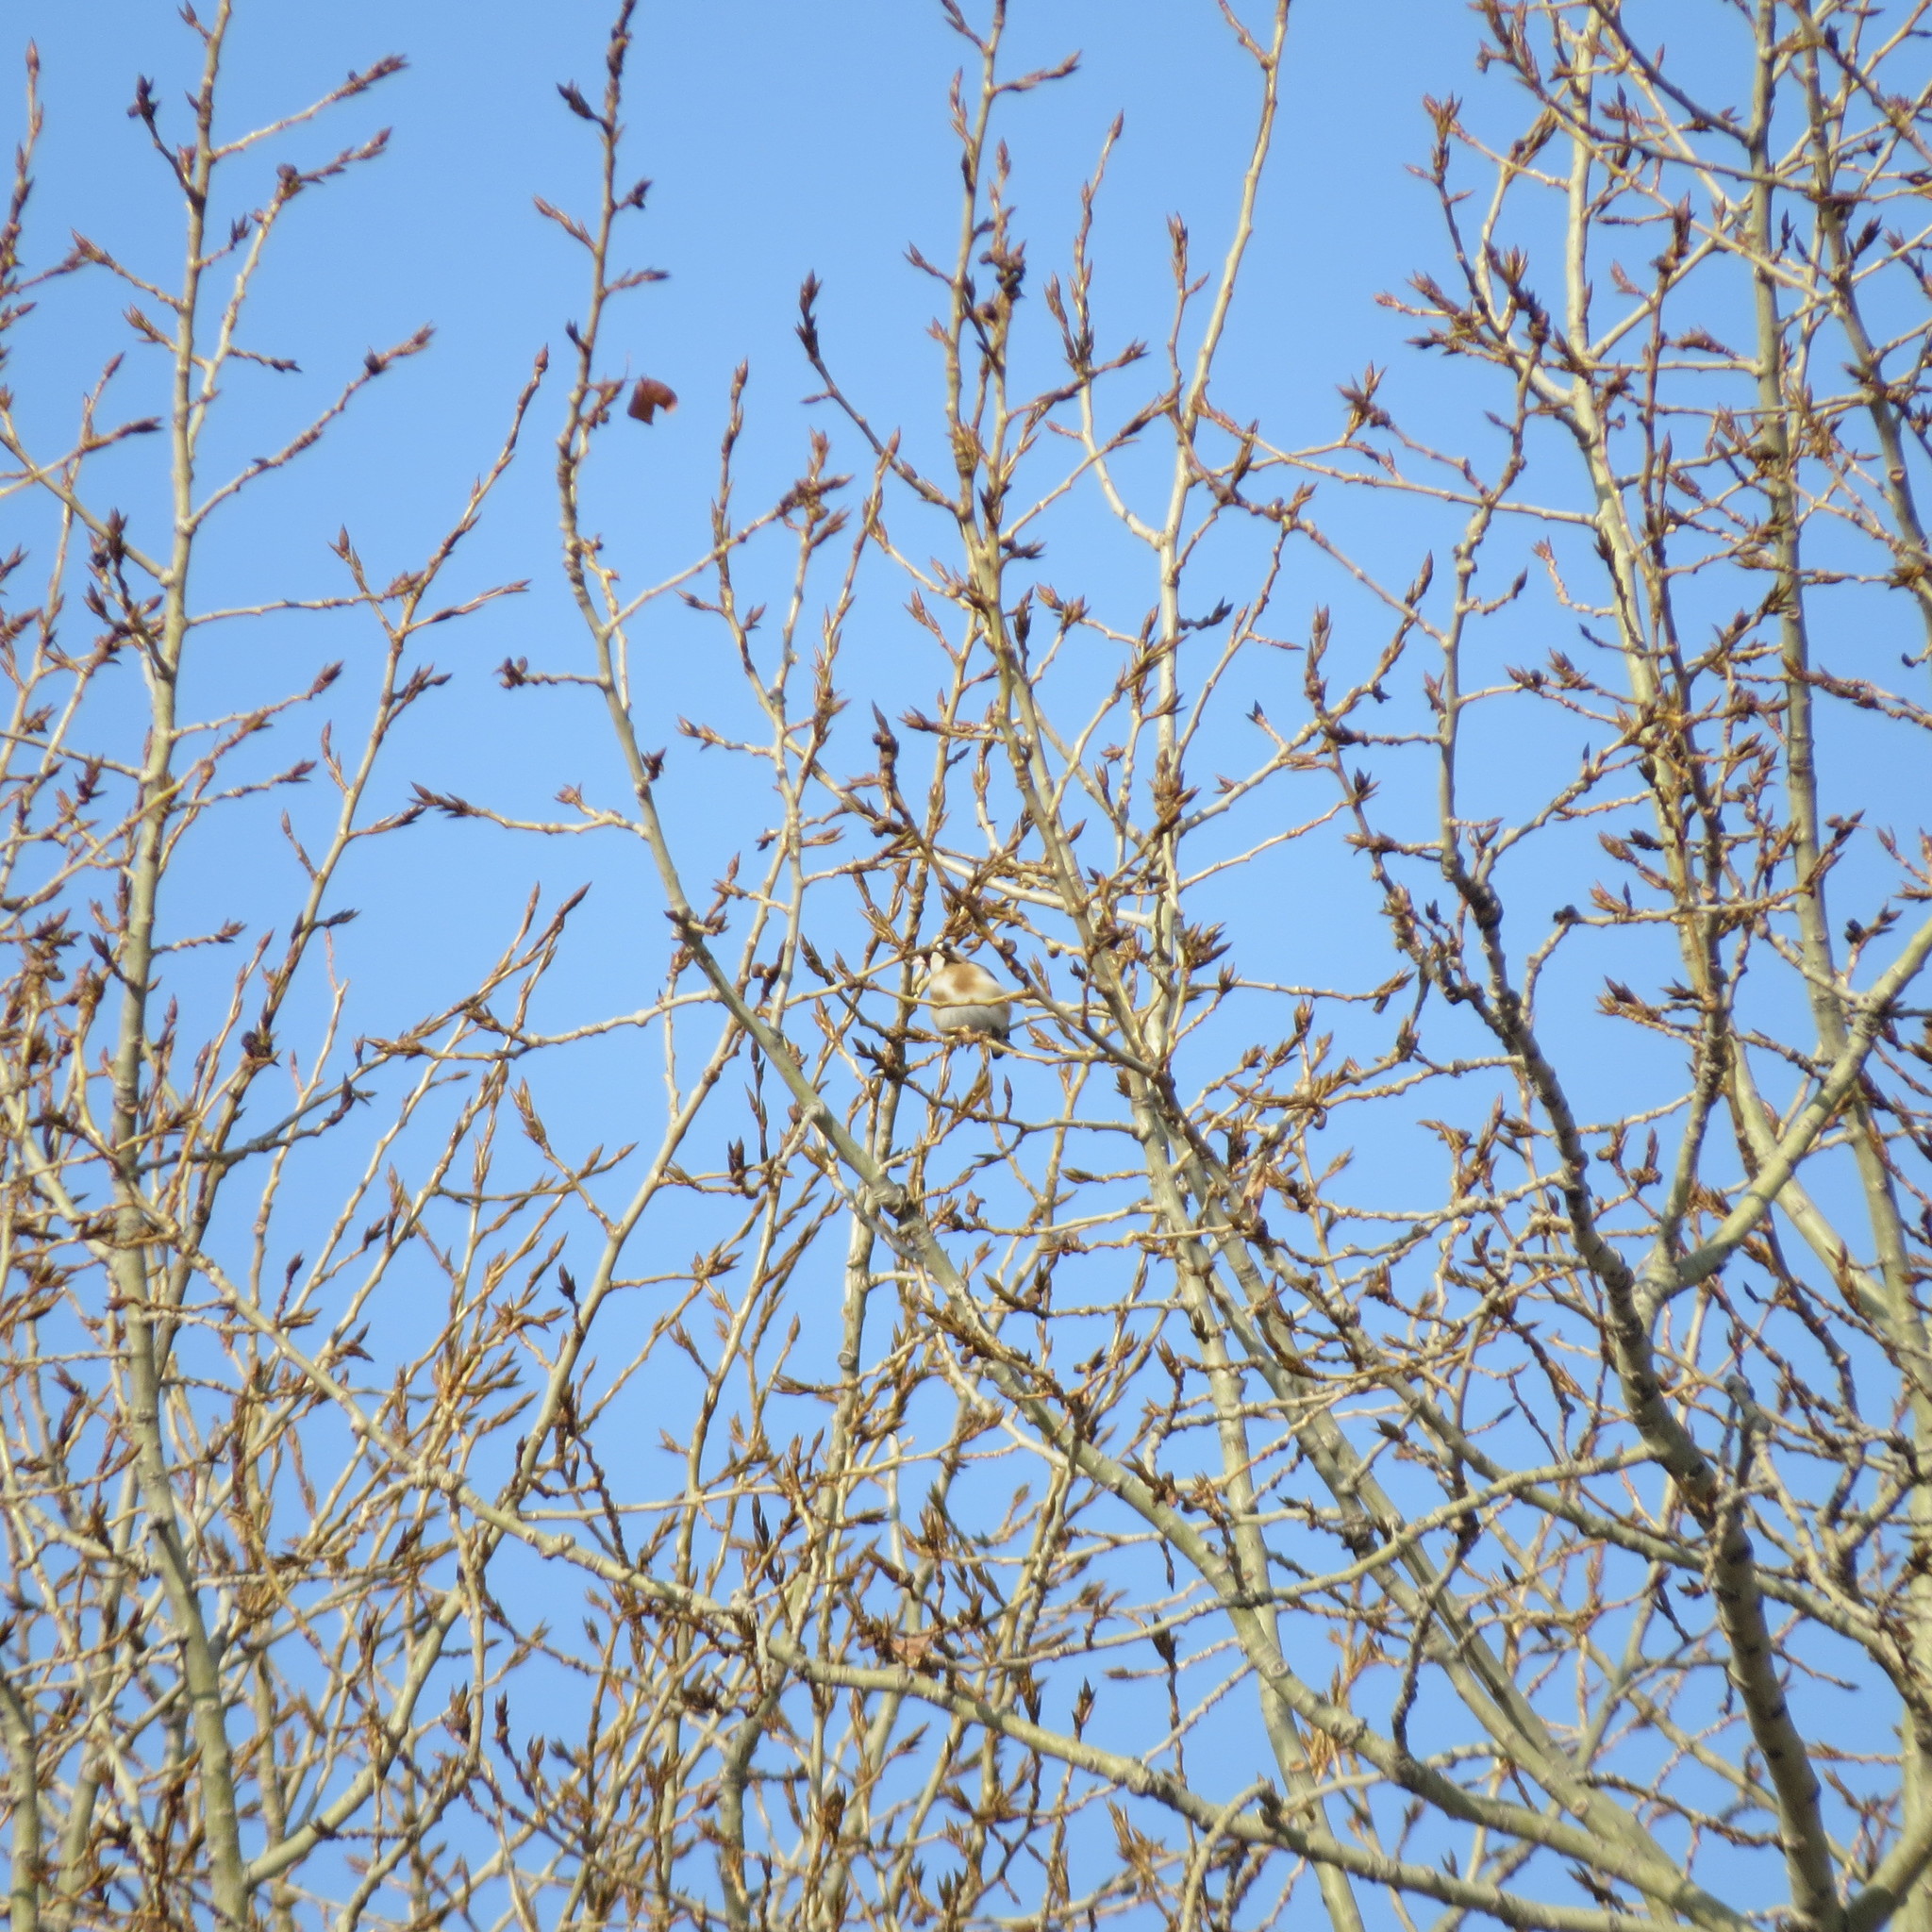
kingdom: Animalia
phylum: Chordata
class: Aves
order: Passeriformes
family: Fringillidae
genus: Carduelis
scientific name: Carduelis carduelis
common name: European goldfinch
